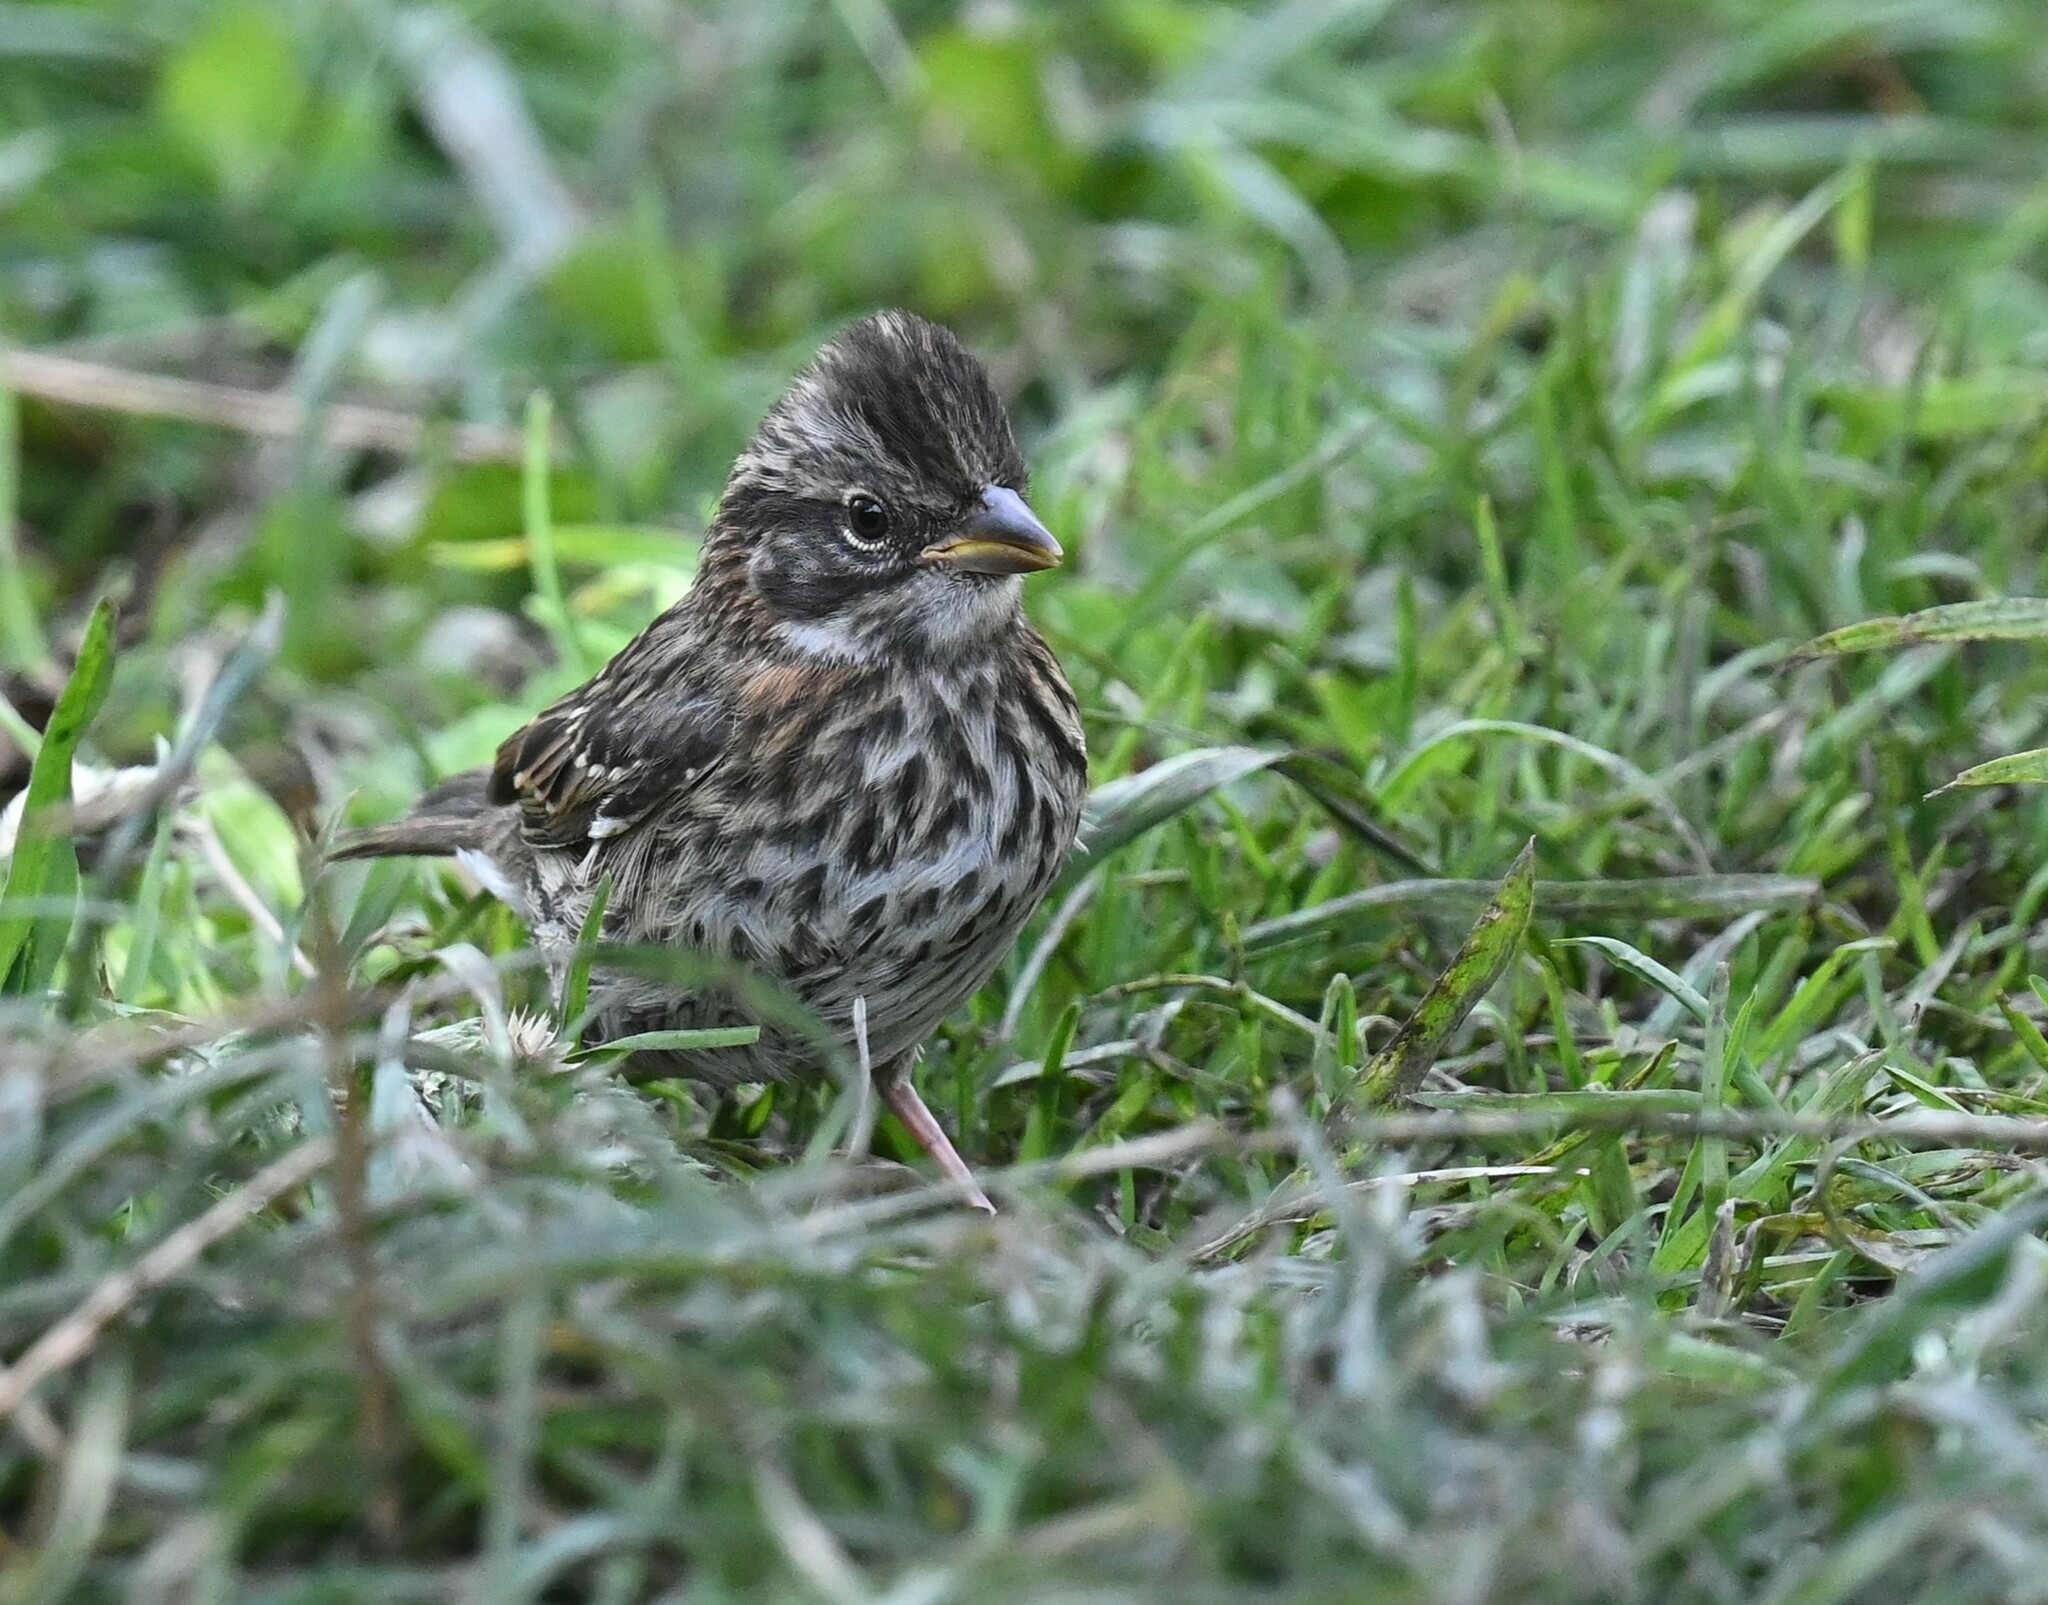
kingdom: Animalia
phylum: Chordata
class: Aves
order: Passeriformes
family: Passerellidae
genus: Zonotrichia
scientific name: Zonotrichia capensis
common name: Rufous-collared sparrow
